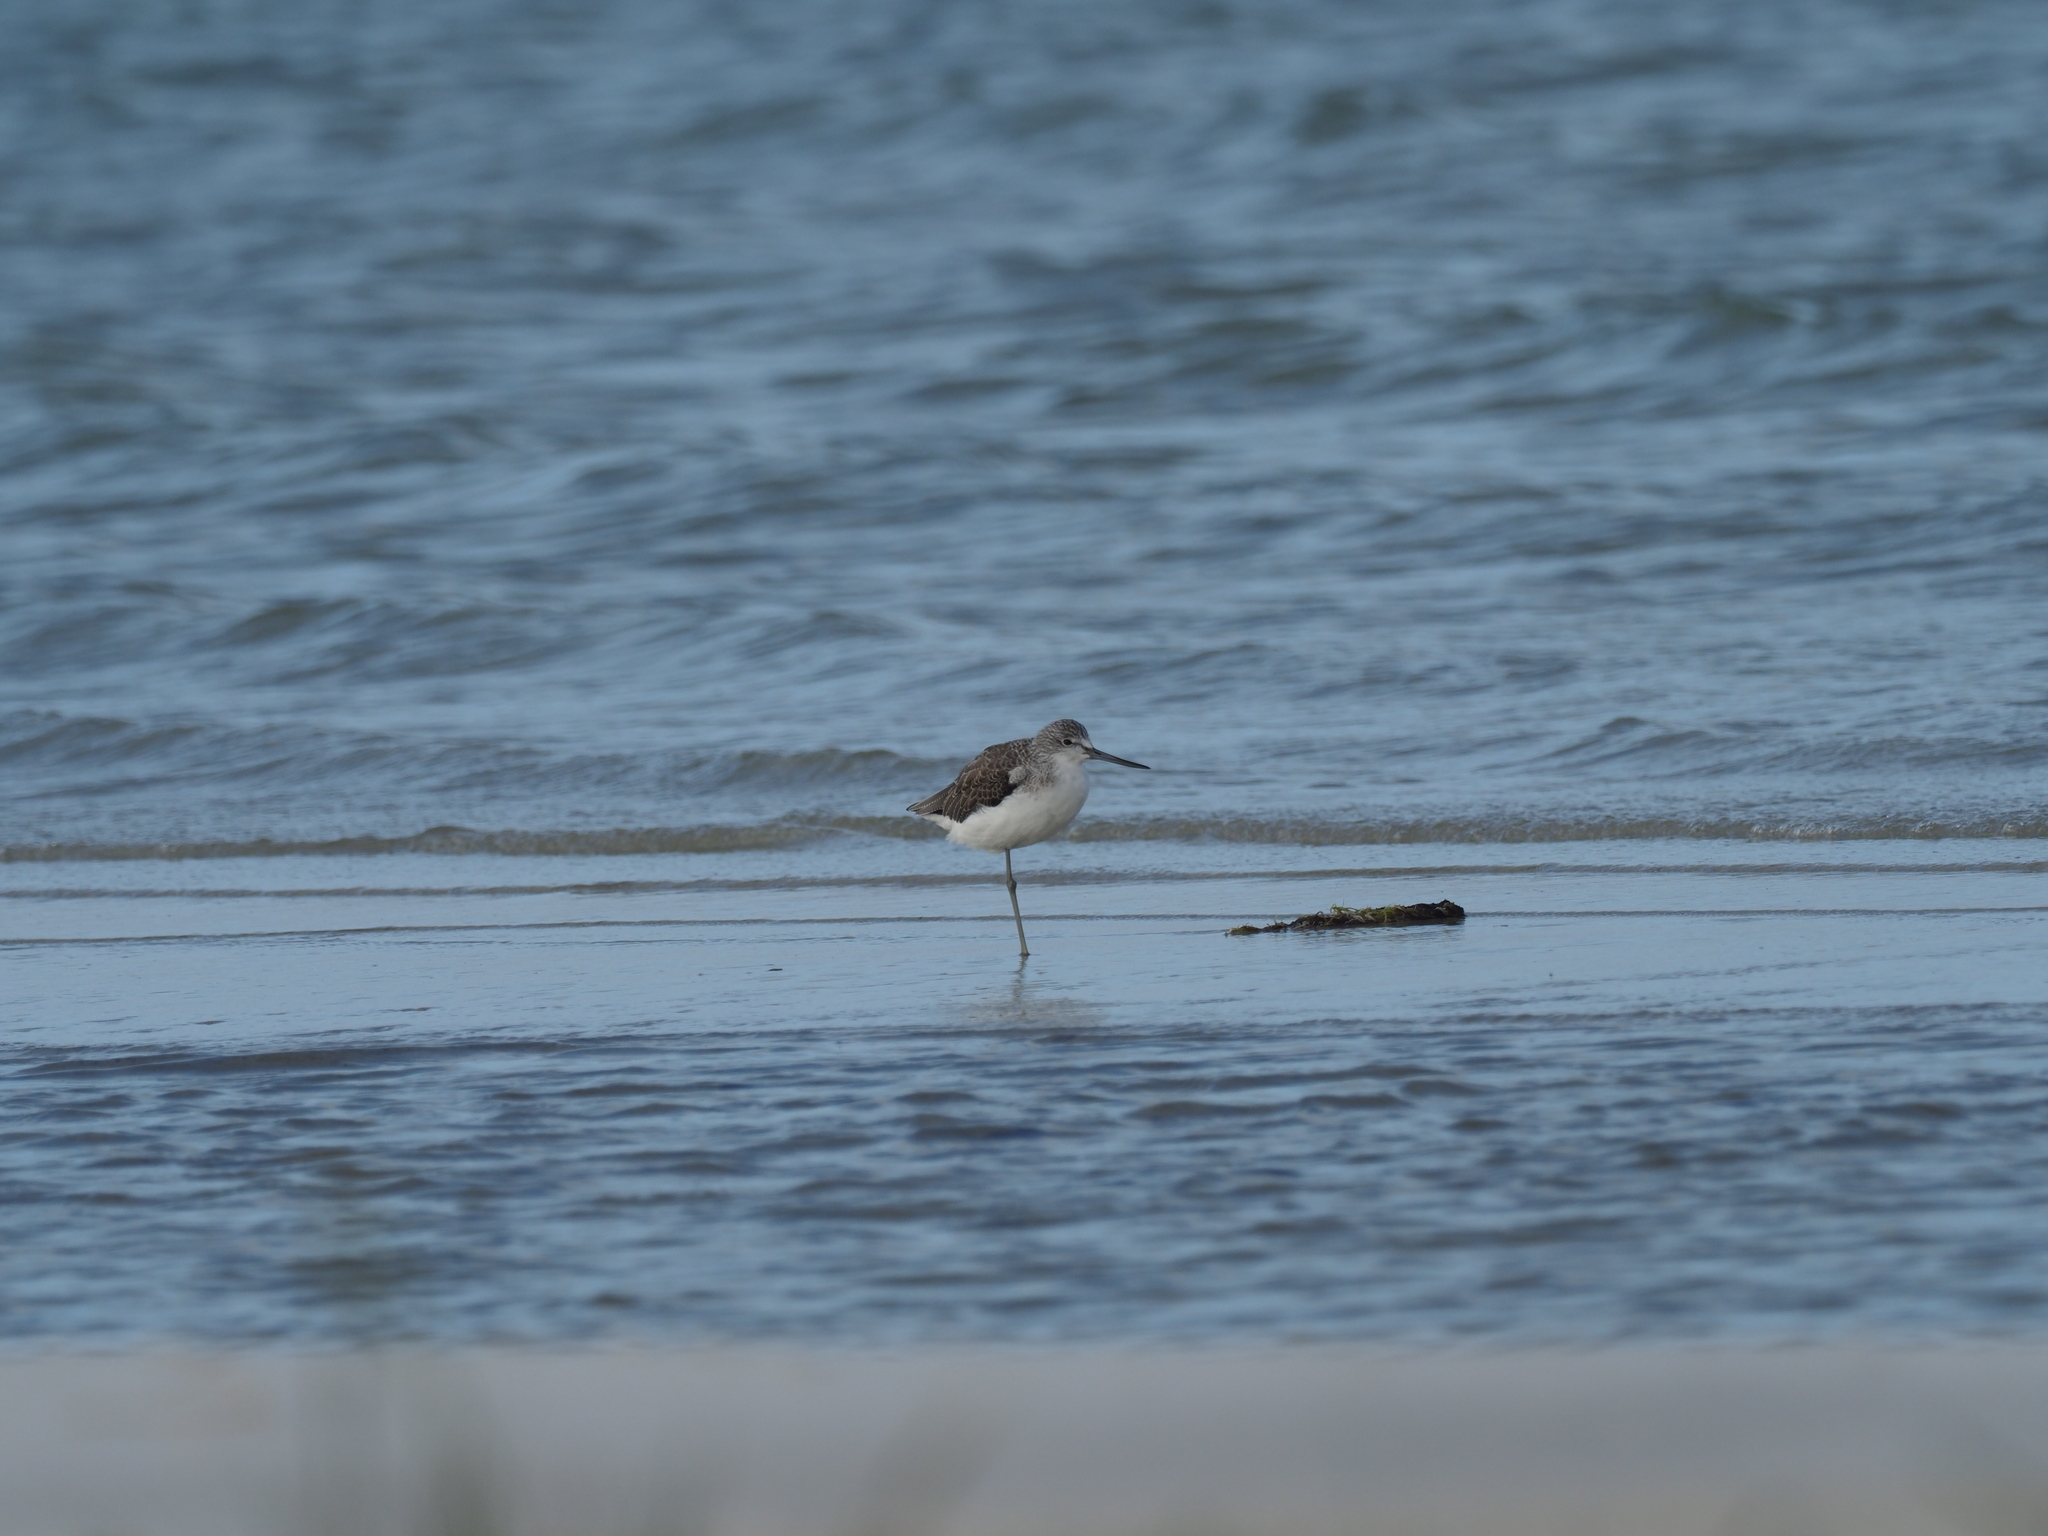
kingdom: Animalia
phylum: Chordata
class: Aves
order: Charadriiformes
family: Scolopacidae
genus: Tringa
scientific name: Tringa nebularia
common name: Common greenshank
